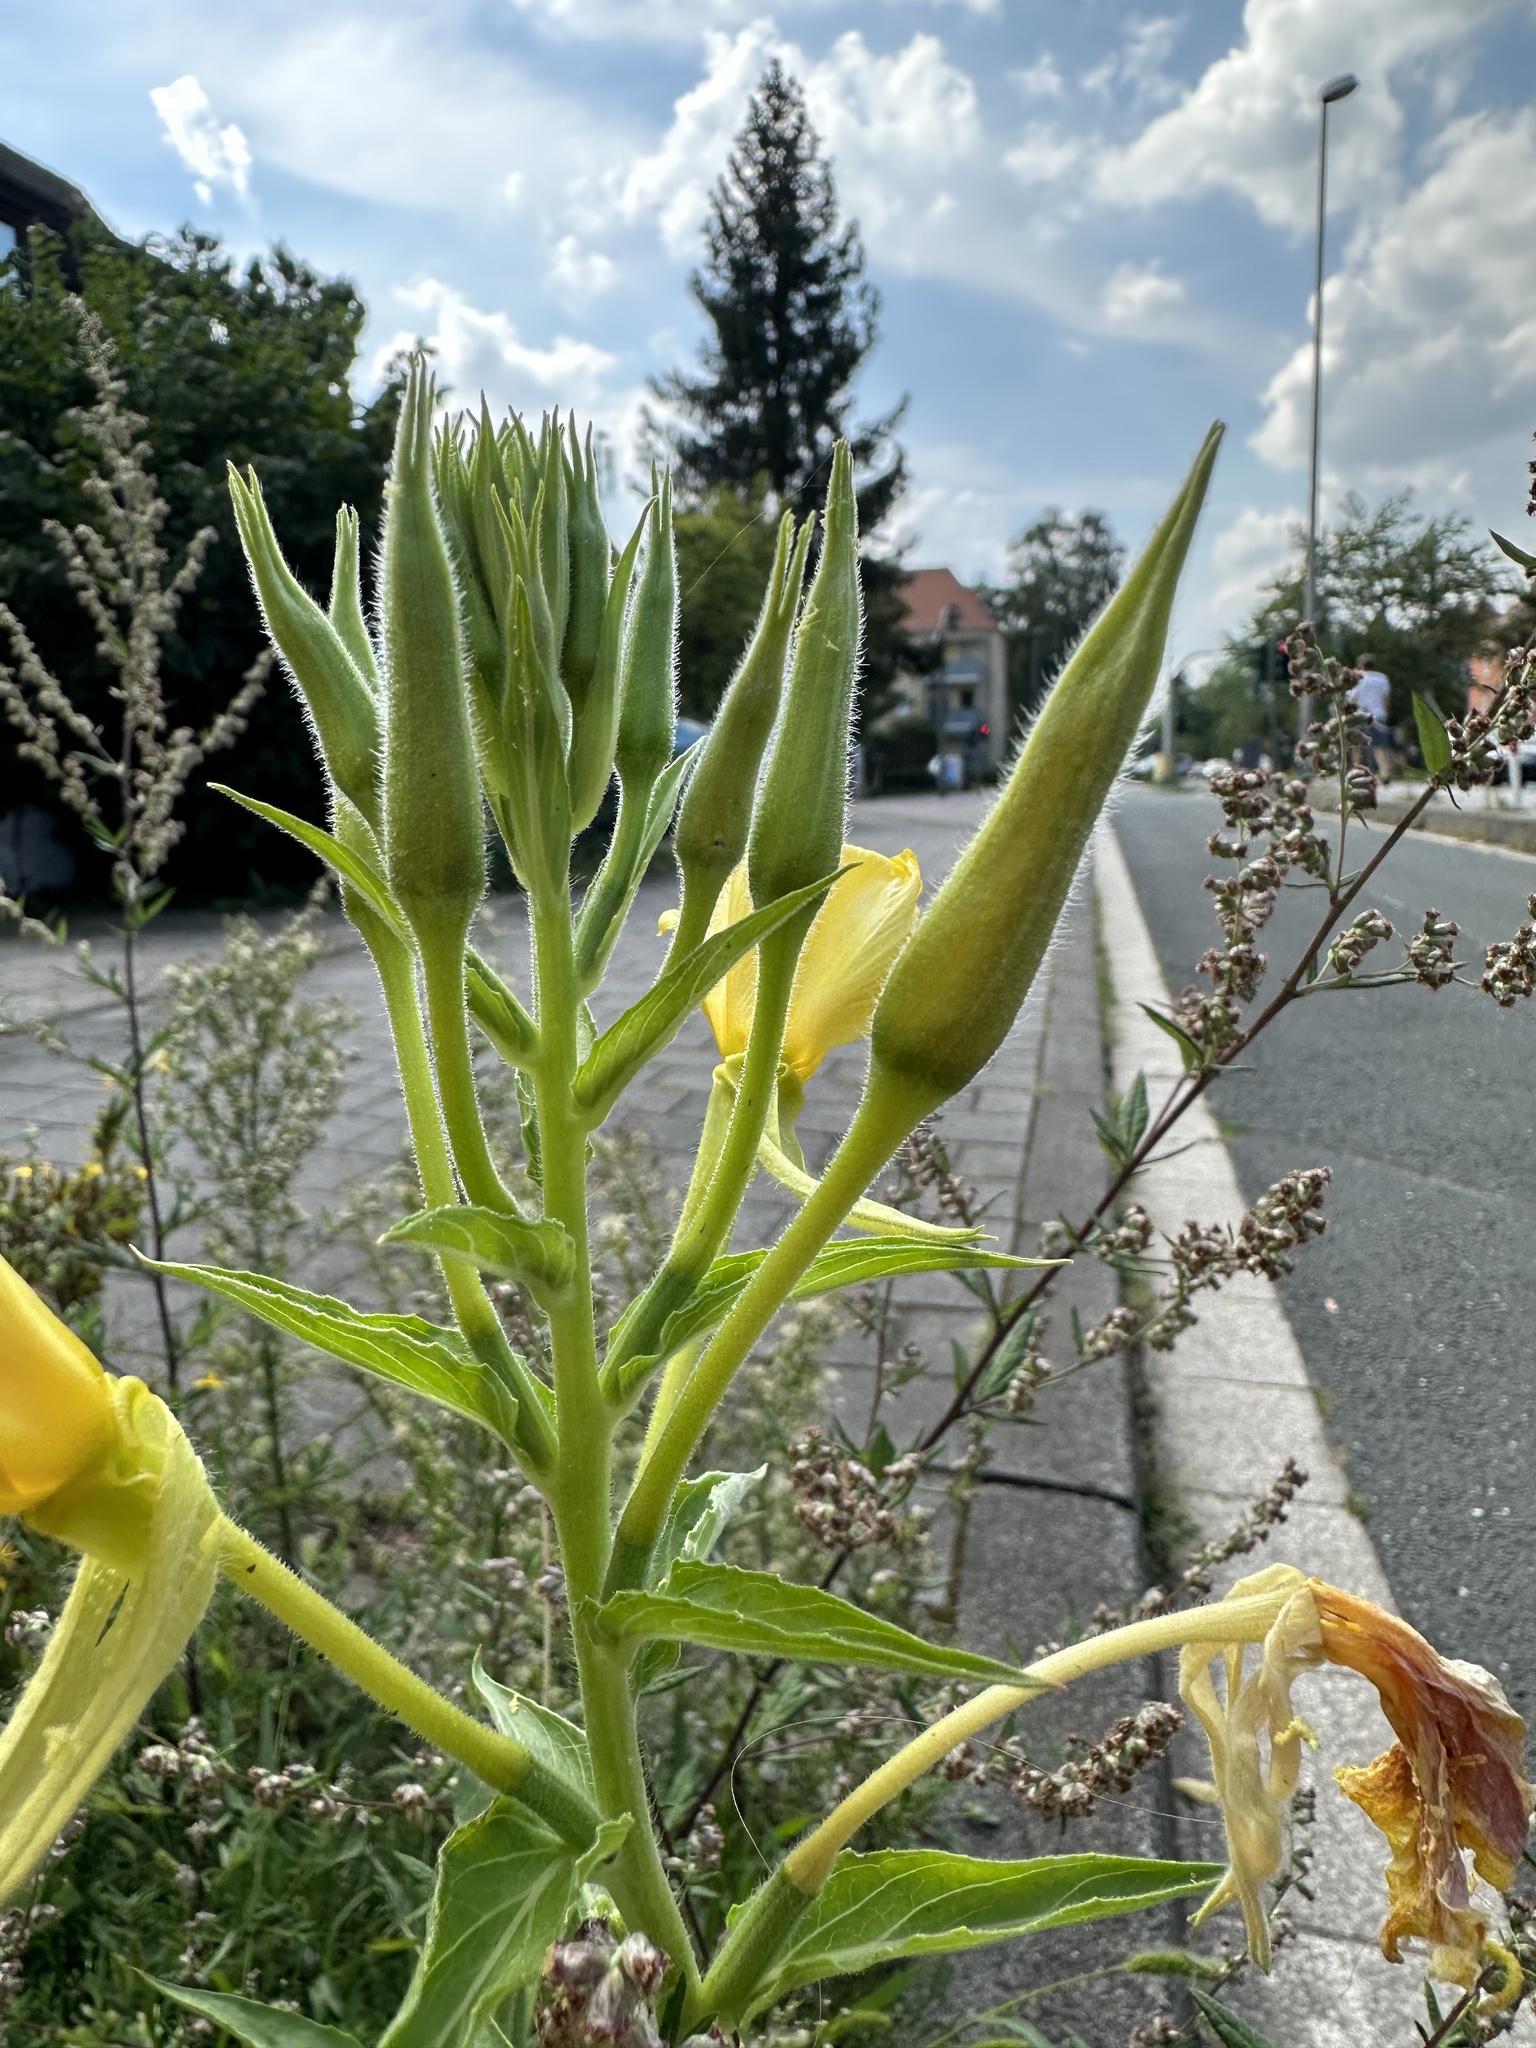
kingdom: Plantae
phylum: Tracheophyta
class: Magnoliopsida
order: Myrtales
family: Onagraceae
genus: Oenothera
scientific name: Oenothera oehlkersii
